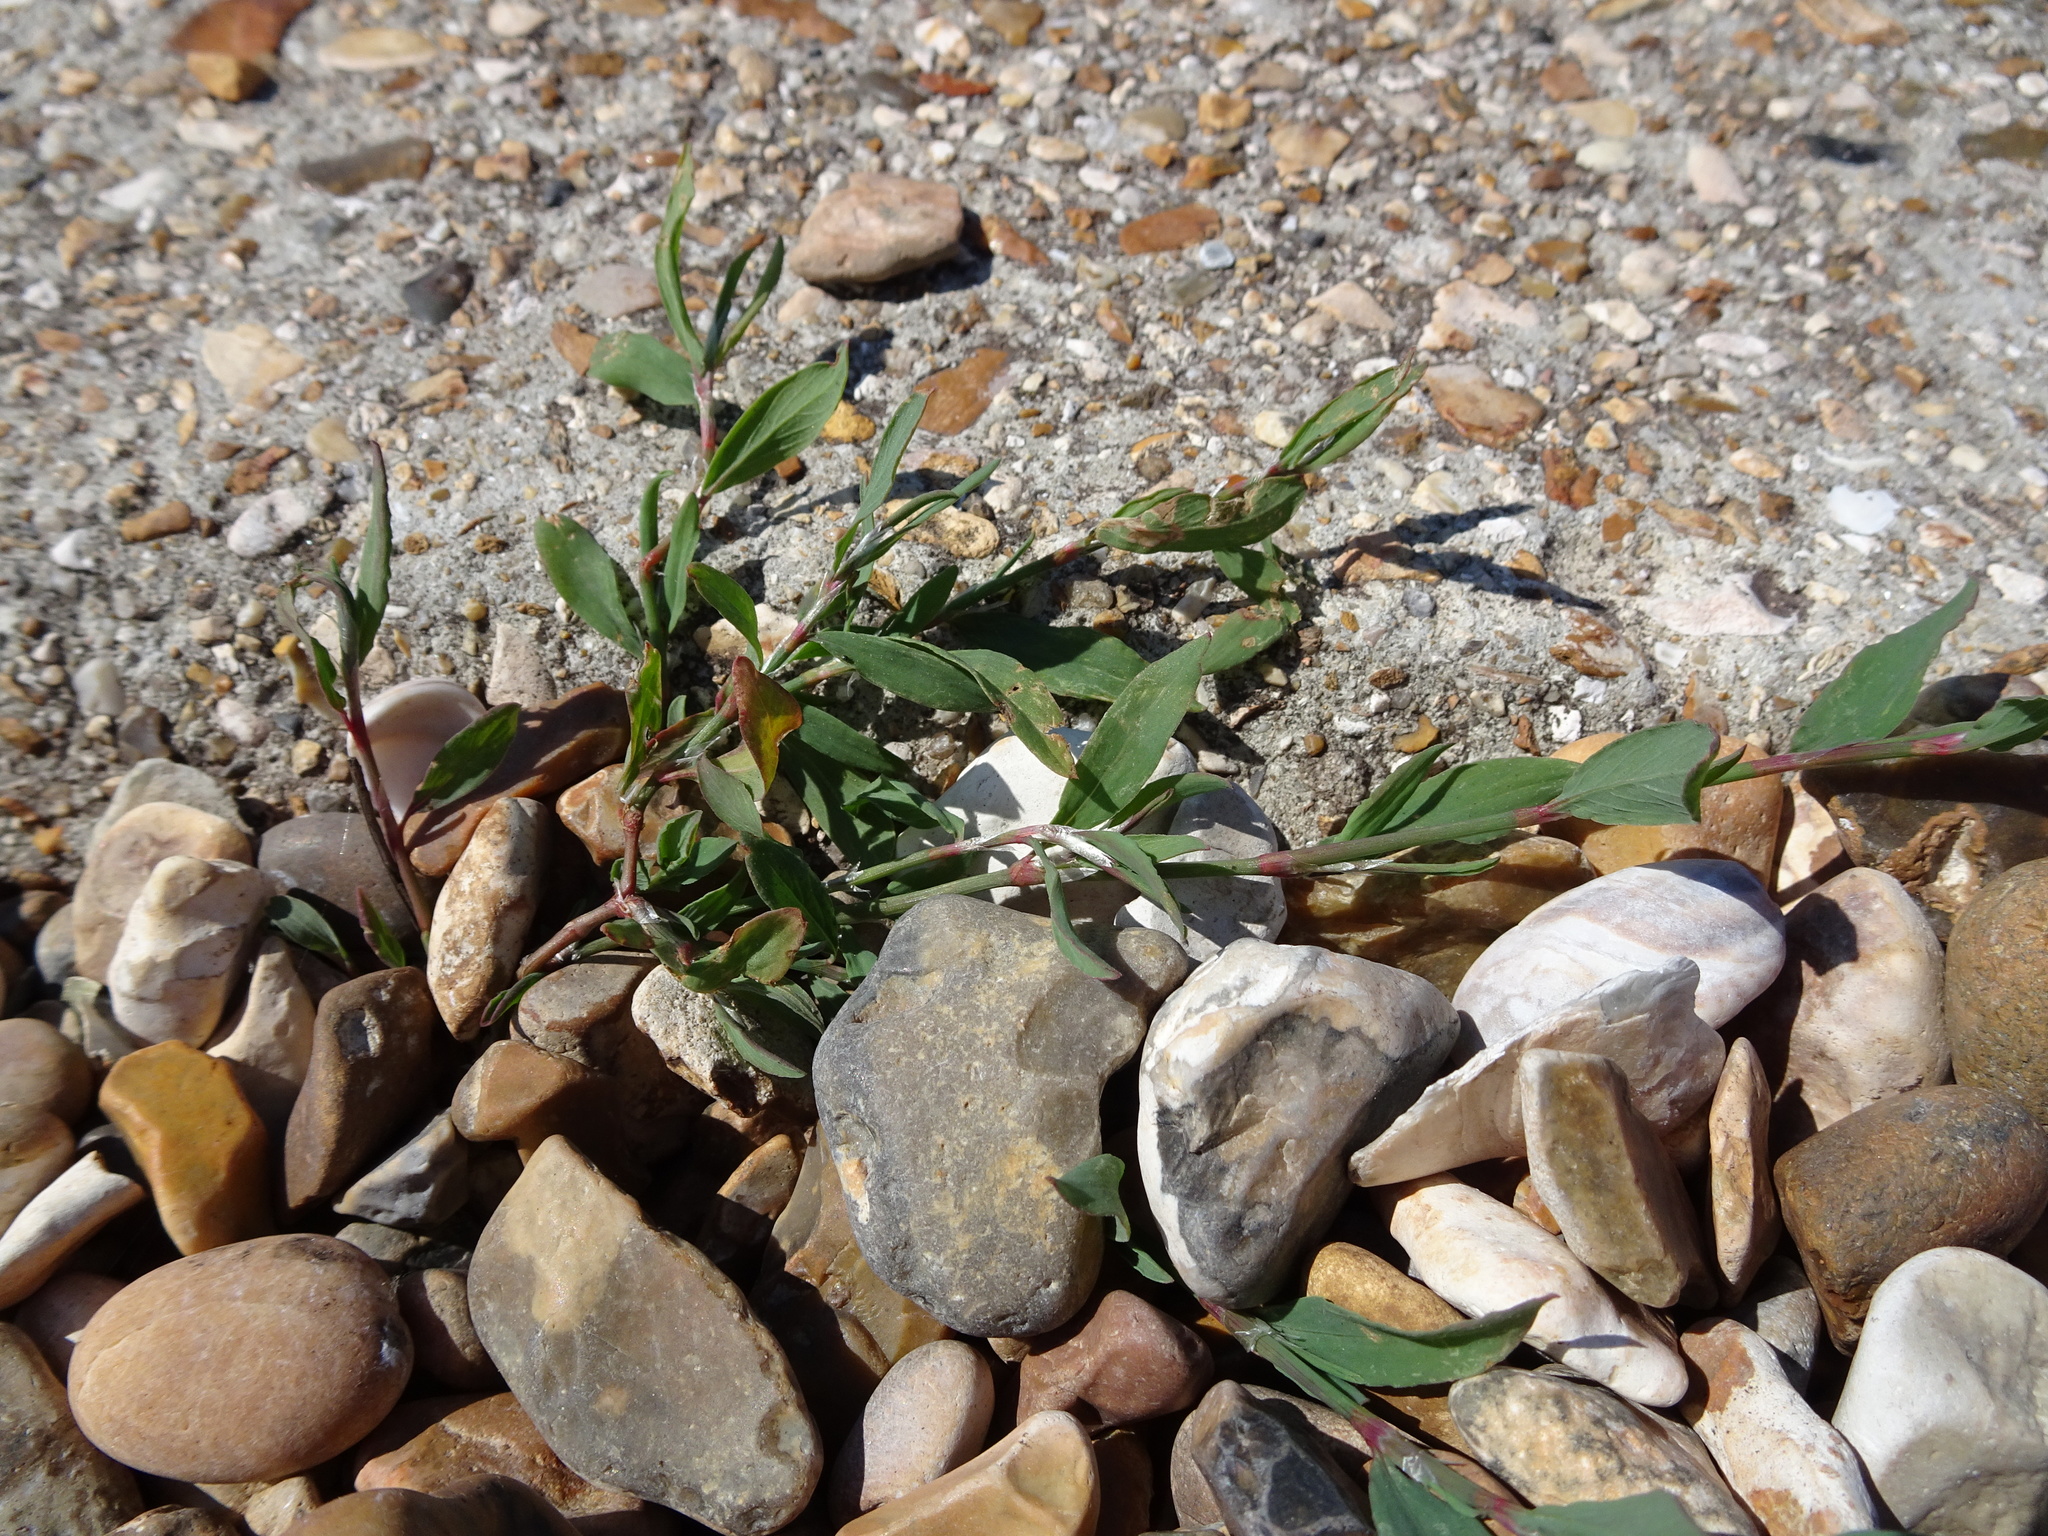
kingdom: Plantae
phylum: Tracheophyta
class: Magnoliopsida
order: Caryophyllales
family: Polygonaceae
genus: Polygonum
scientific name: Polygonum aviculare
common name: Prostrate knotweed
